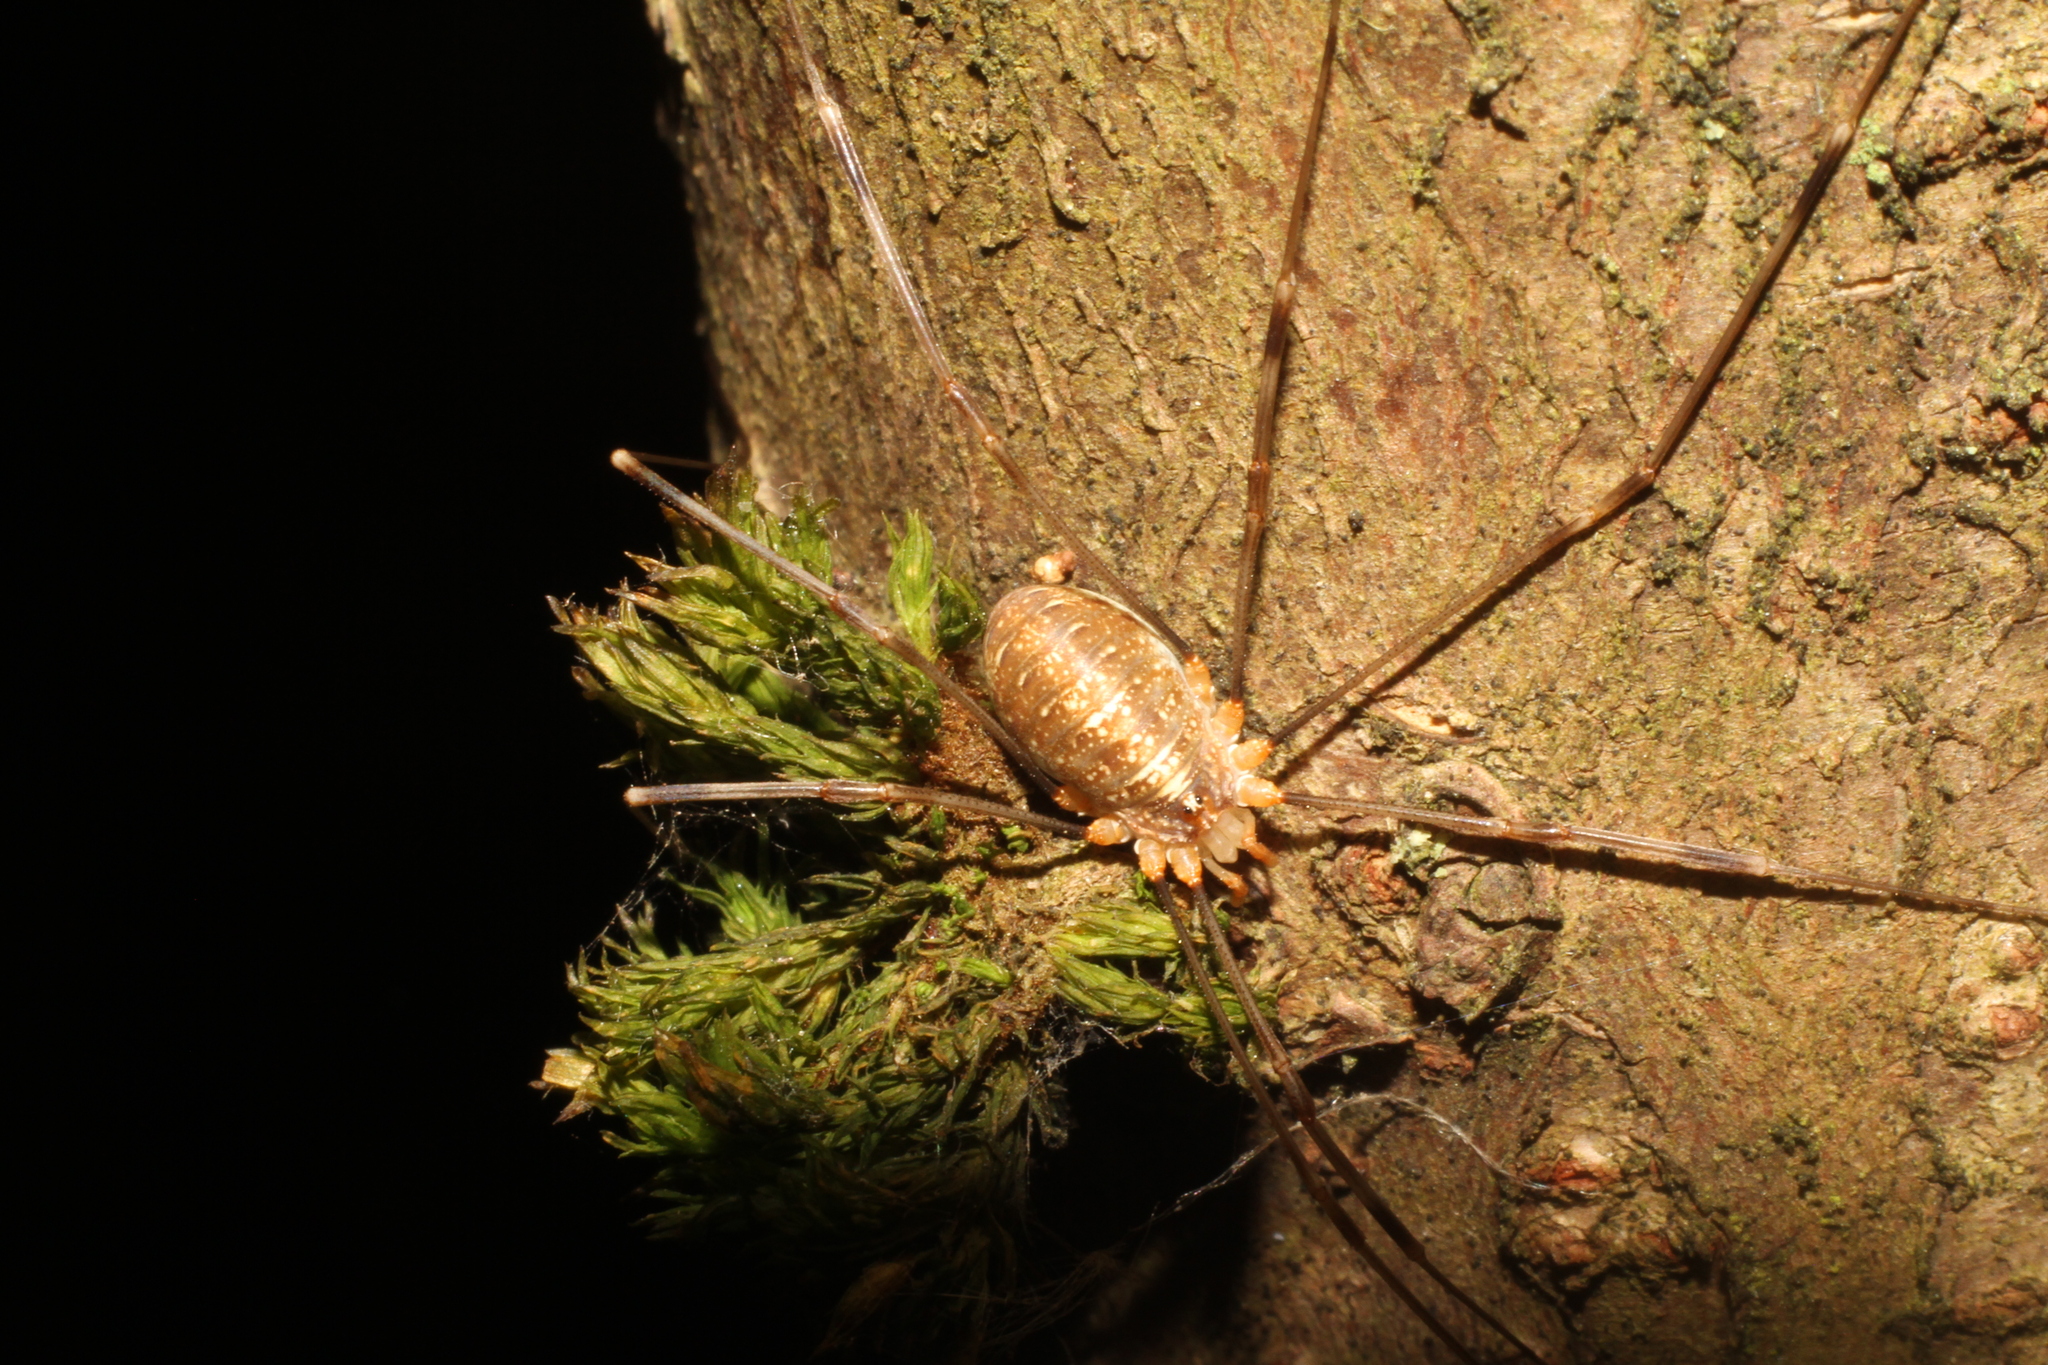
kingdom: Animalia
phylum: Arthropoda
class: Arachnida
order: Opiliones
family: Phalangiidae
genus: Opilio
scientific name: Opilio canestrinii
